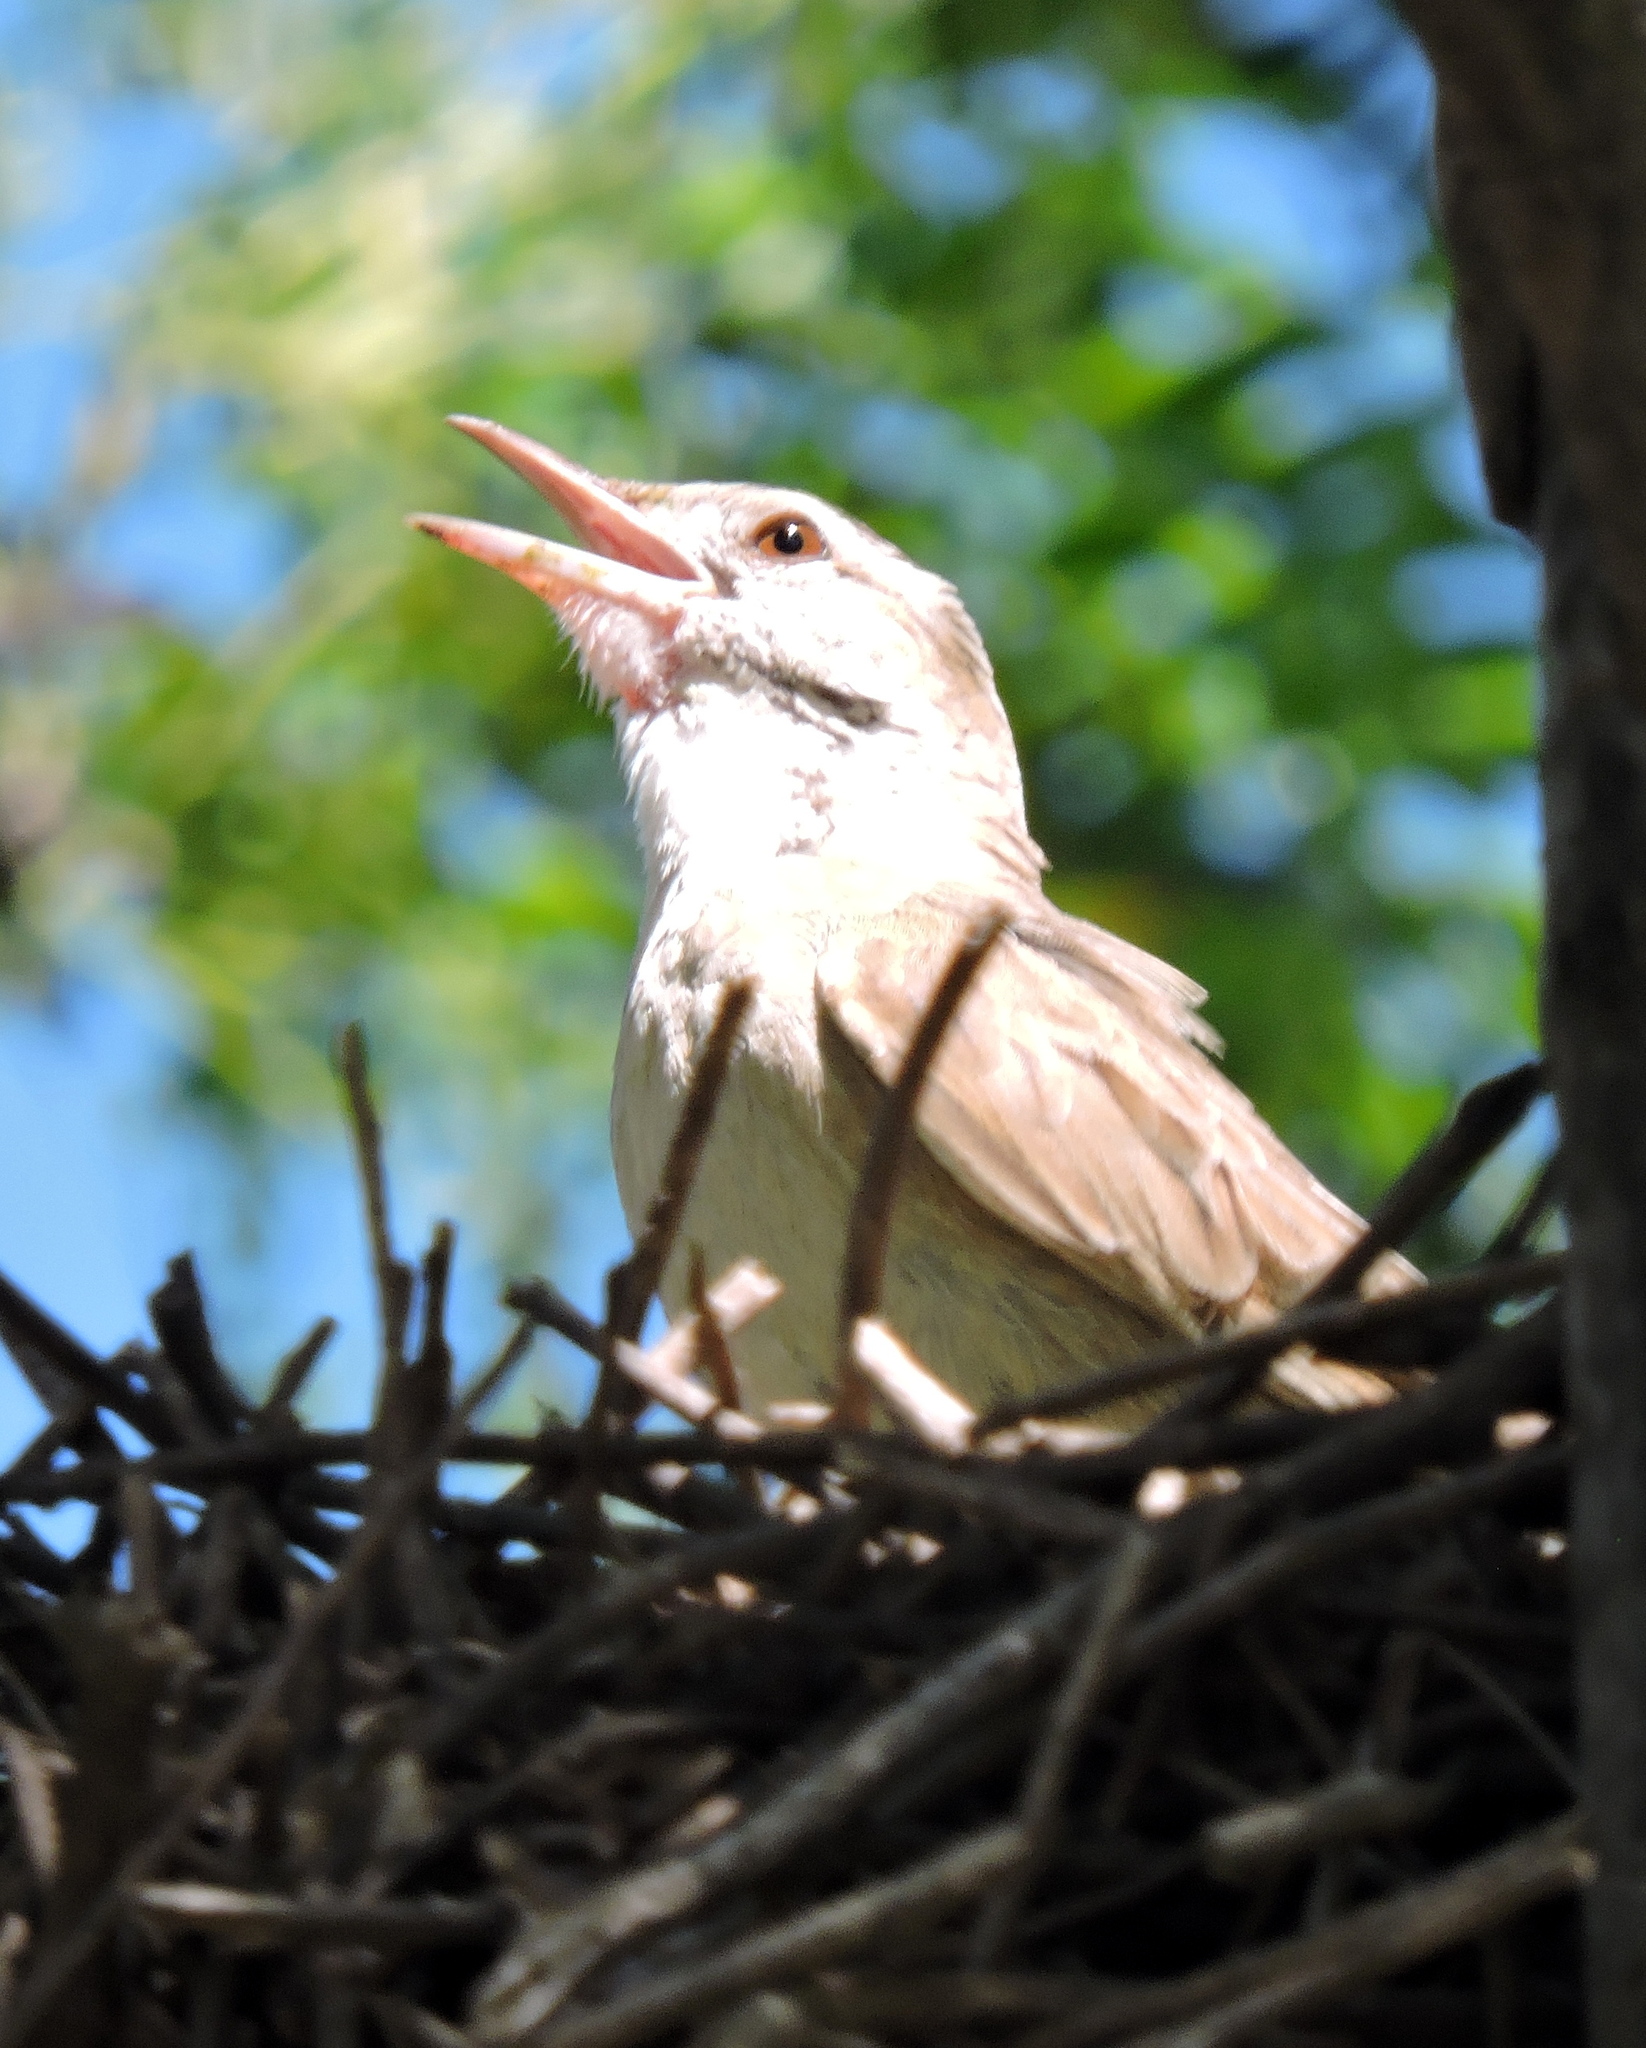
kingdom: Animalia
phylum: Chordata
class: Aves
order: Passeriformes
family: Furnariidae
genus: Anumbius
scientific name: Anumbius annumbi
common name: Firewood-gatherer
